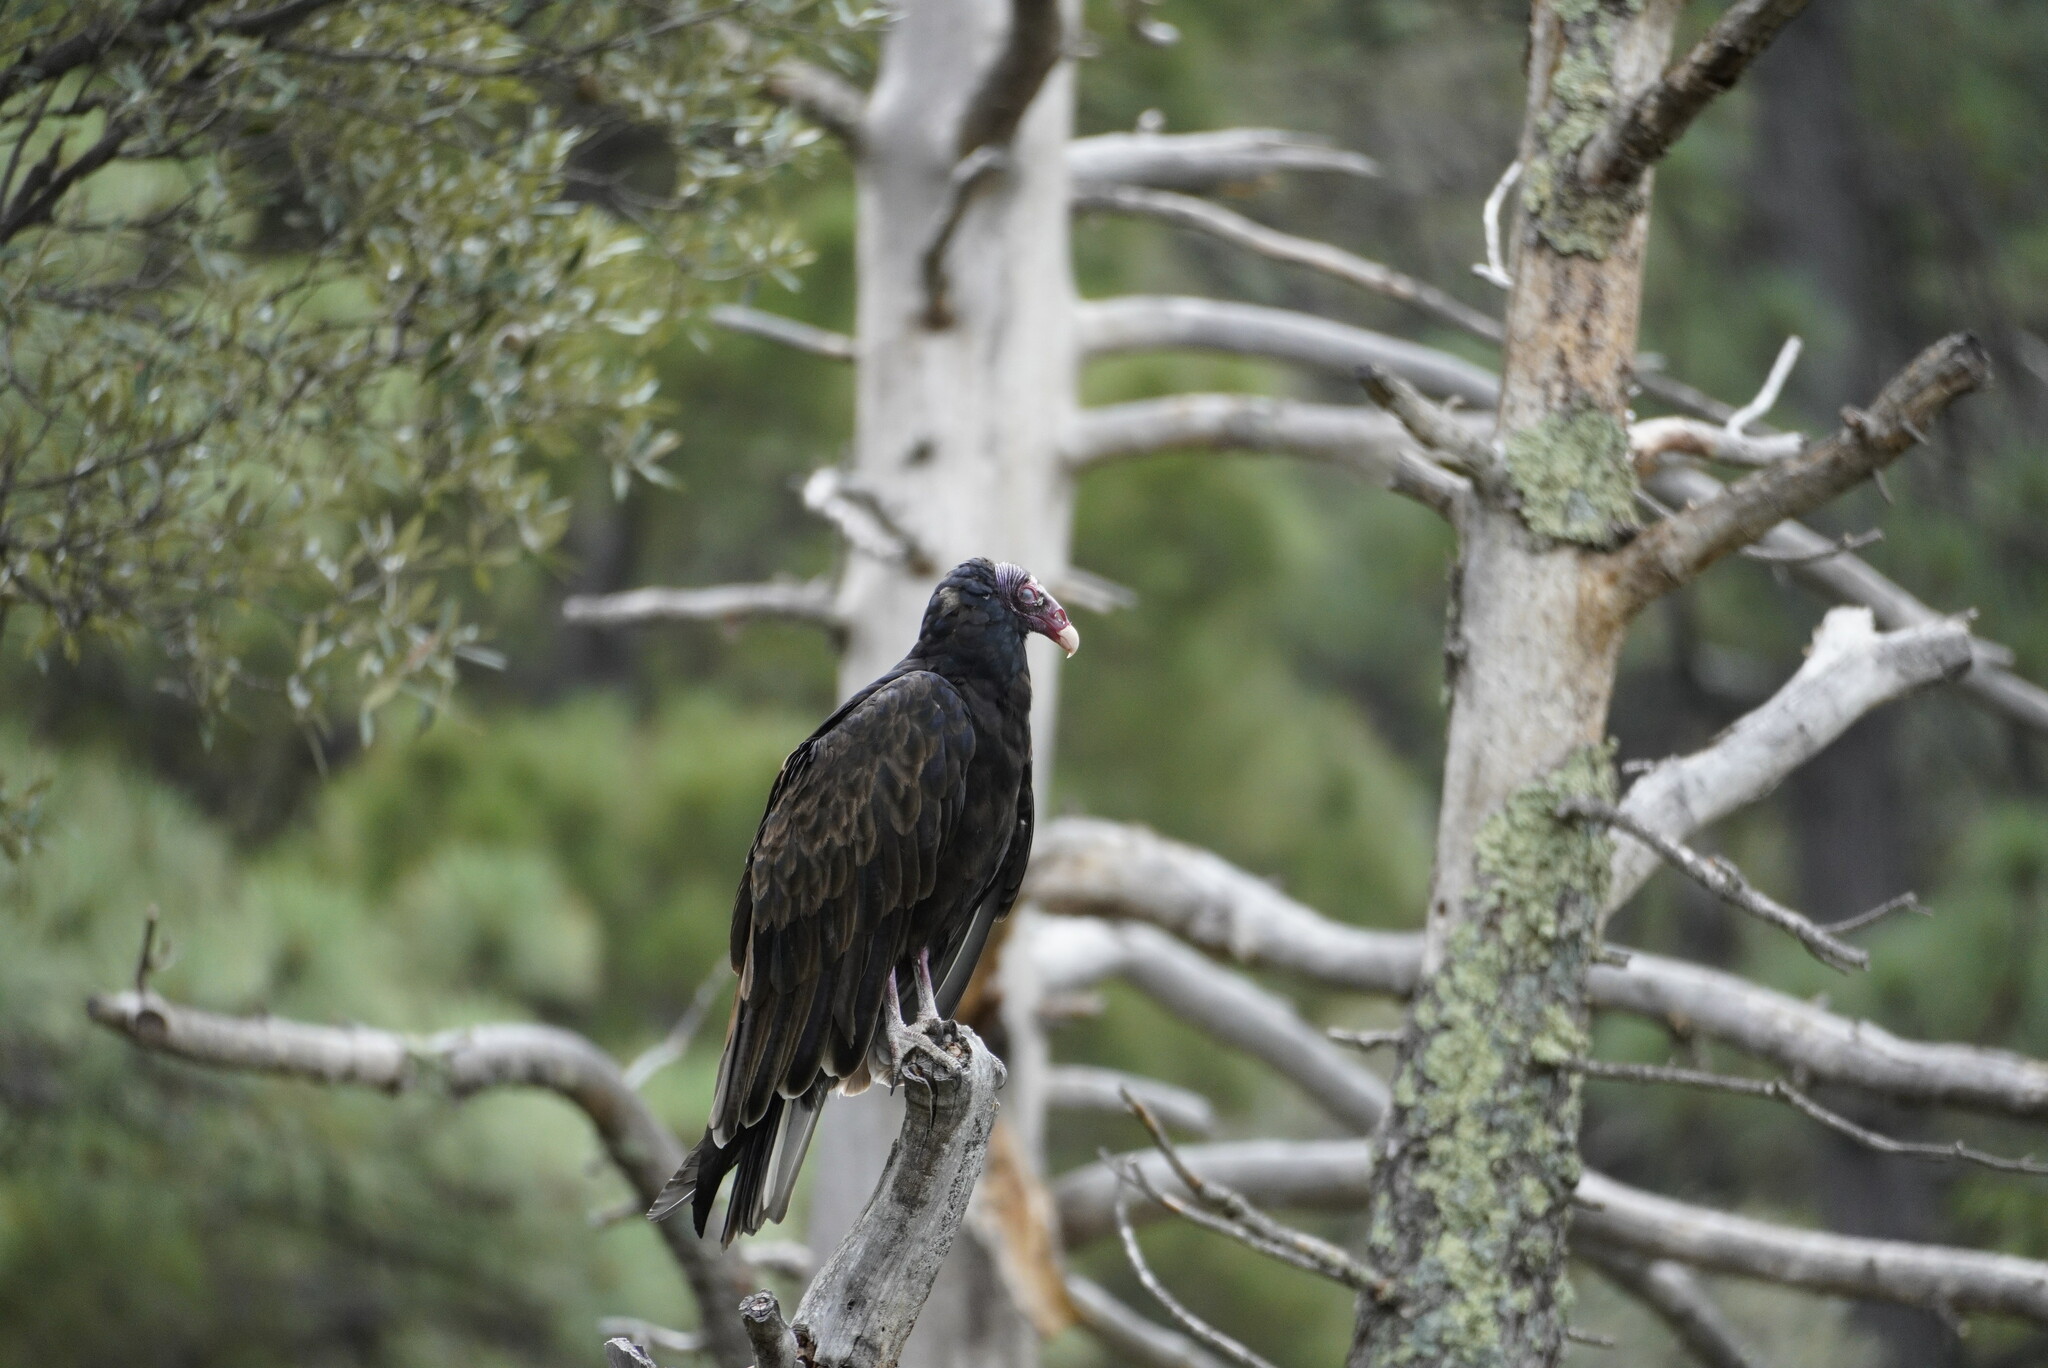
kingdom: Animalia
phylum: Chordata
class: Aves
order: Accipitriformes
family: Cathartidae
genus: Cathartes
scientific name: Cathartes aura
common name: Turkey vulture
